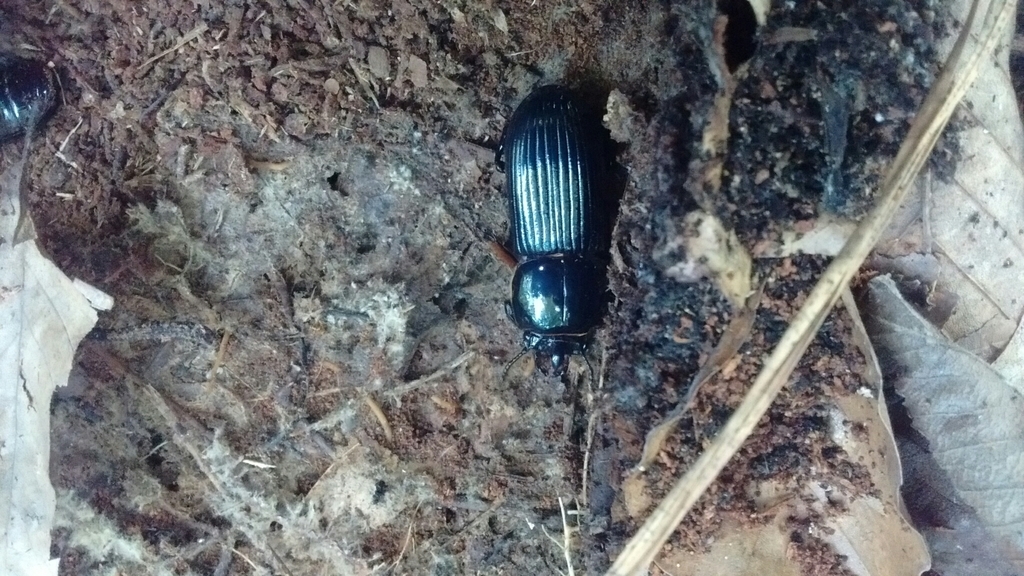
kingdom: Animalia
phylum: Arthropoda
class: Insecta
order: Coleoptera
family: Passalidae
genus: Odontotaenius
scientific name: Odontotaenius disjunctus
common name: Patent leather beetle
